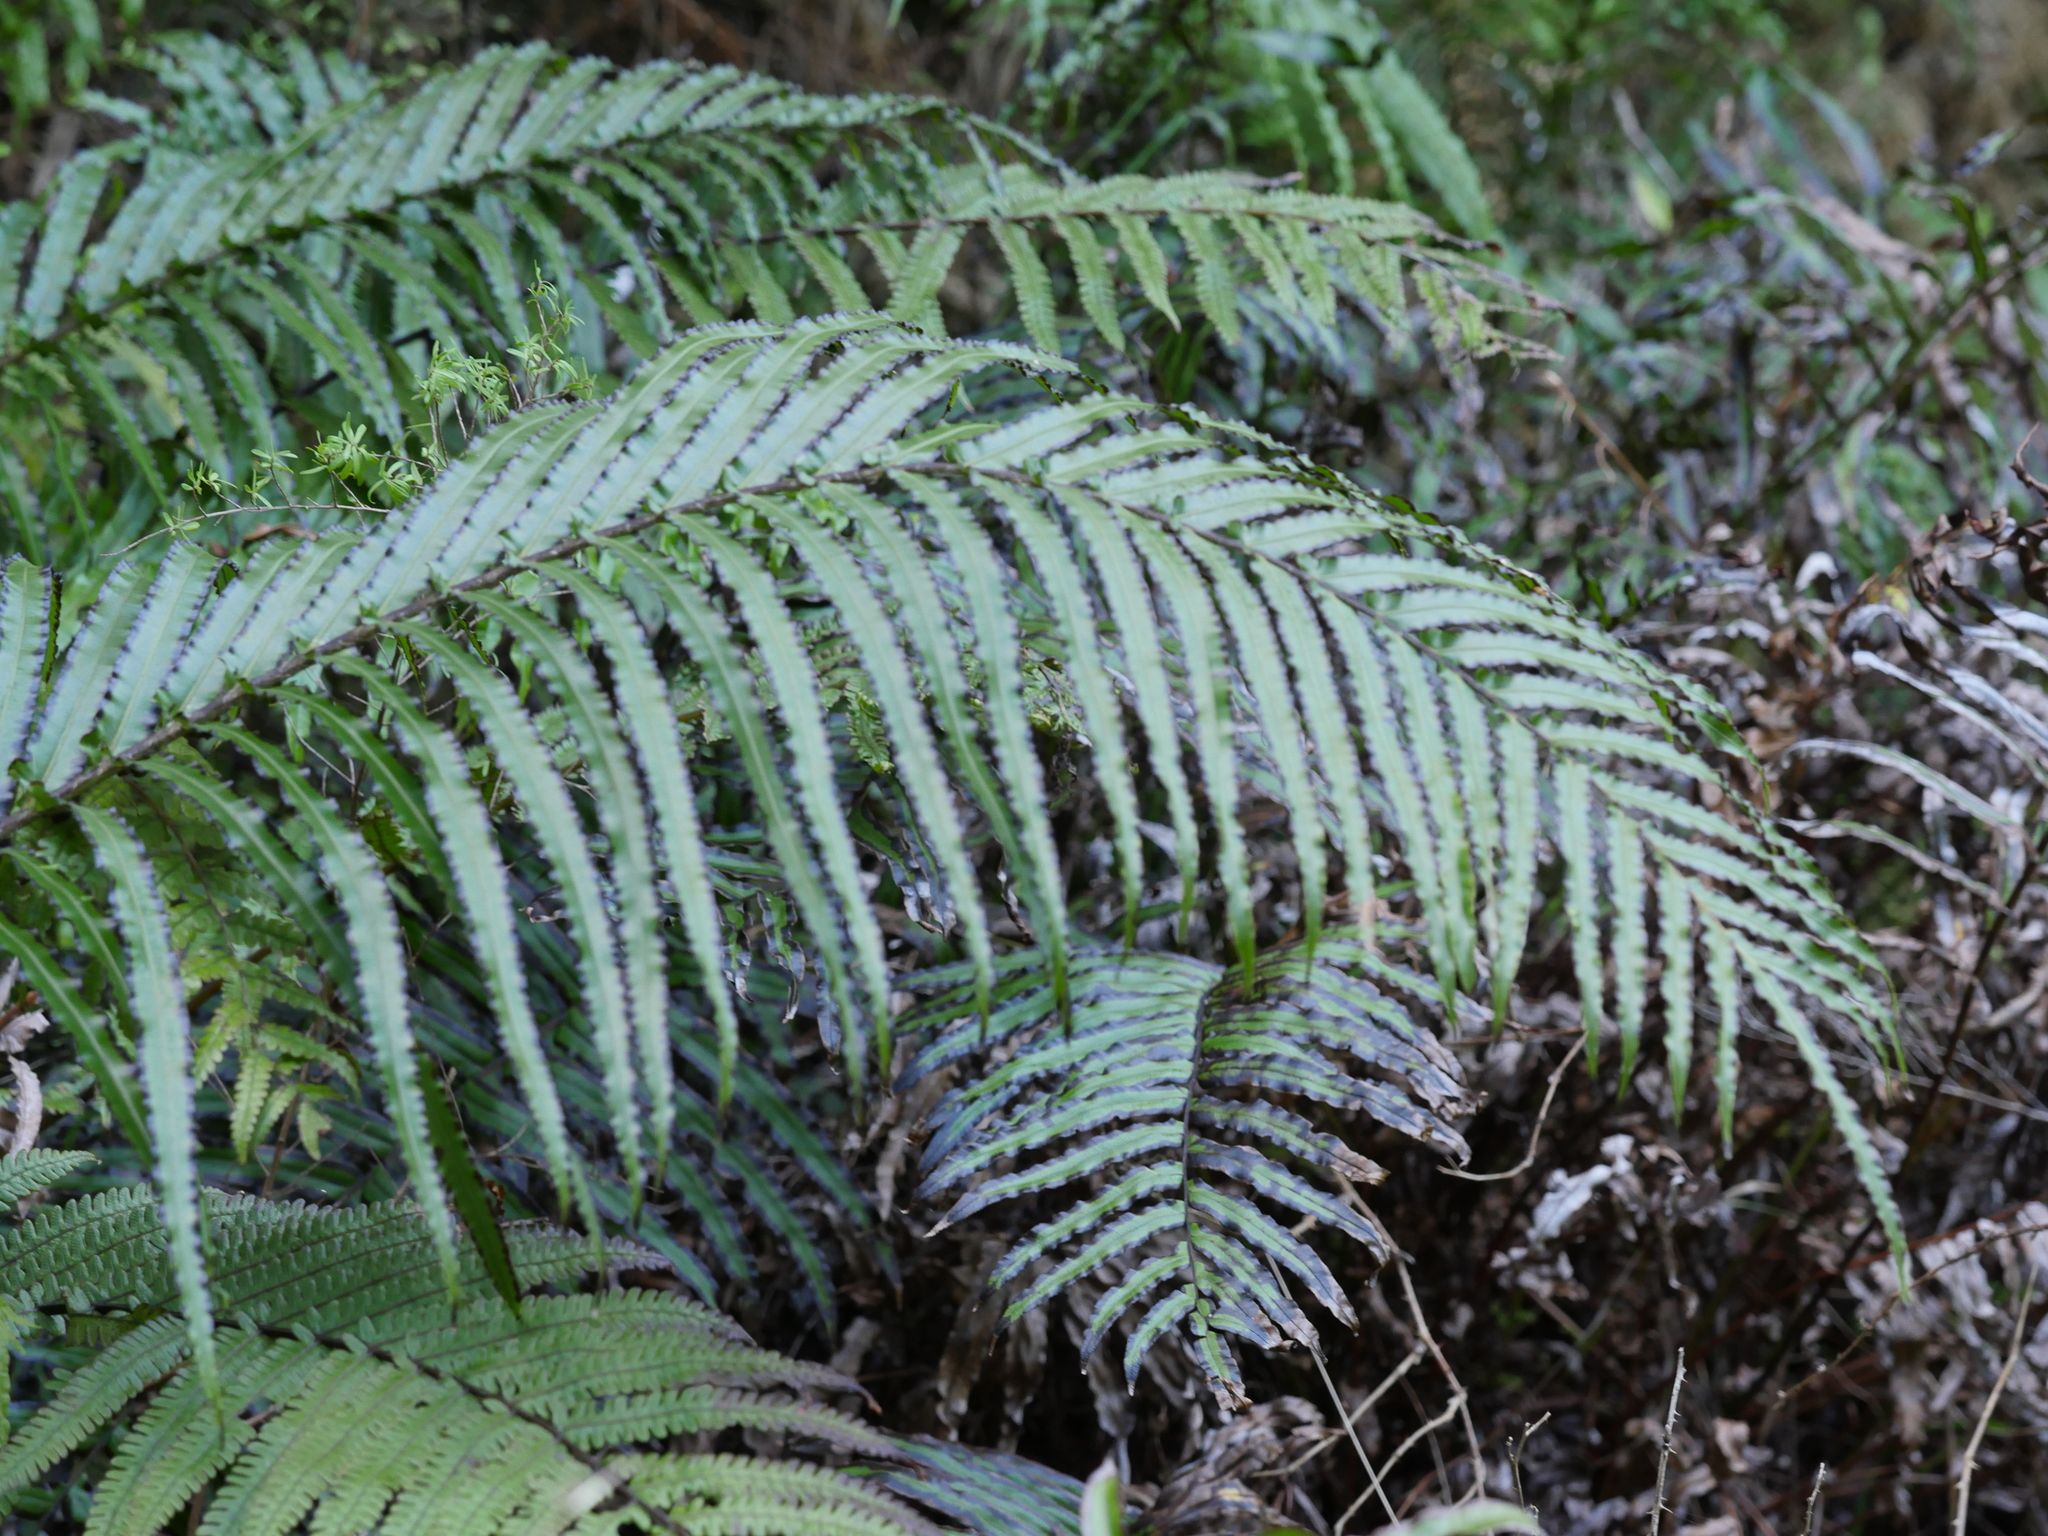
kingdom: Plantae
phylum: Tracheophyta
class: Polypodiopsida
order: Polypodiales
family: Blechnaceae
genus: Parablechnum
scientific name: Parablechnum novae-zelandiae
